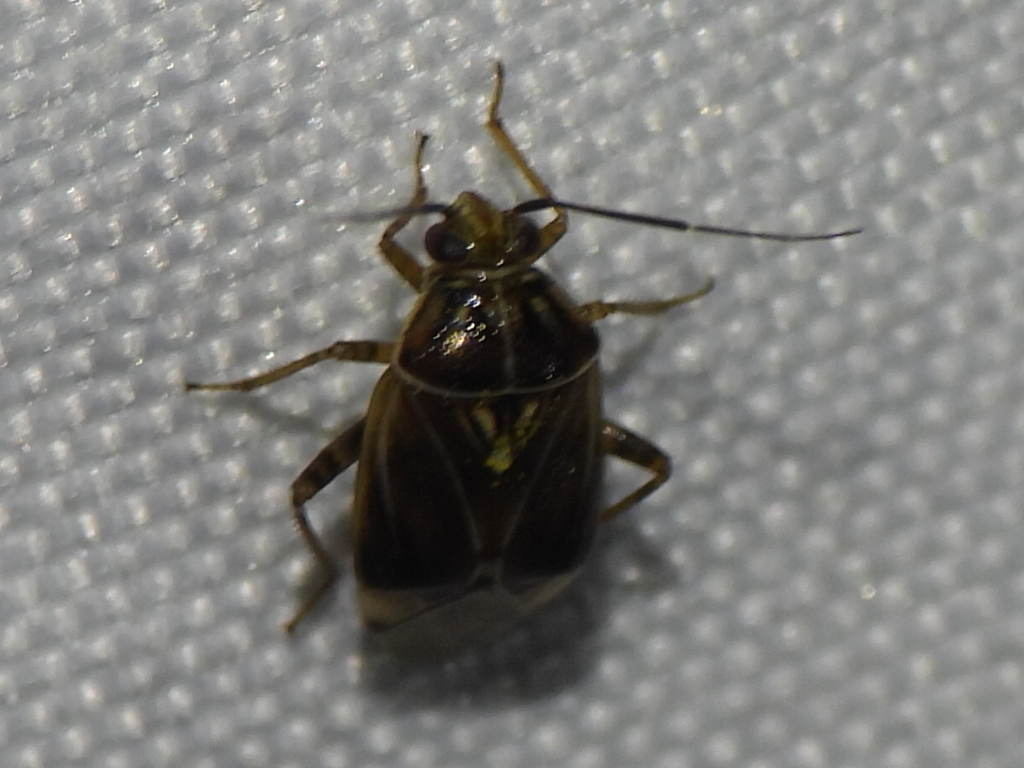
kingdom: Animalia
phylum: Arthropoda
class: Insecta
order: Hemiptera
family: Miridae
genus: Lygus
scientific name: Lygus lineolaris
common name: North american tarnished plant bug
